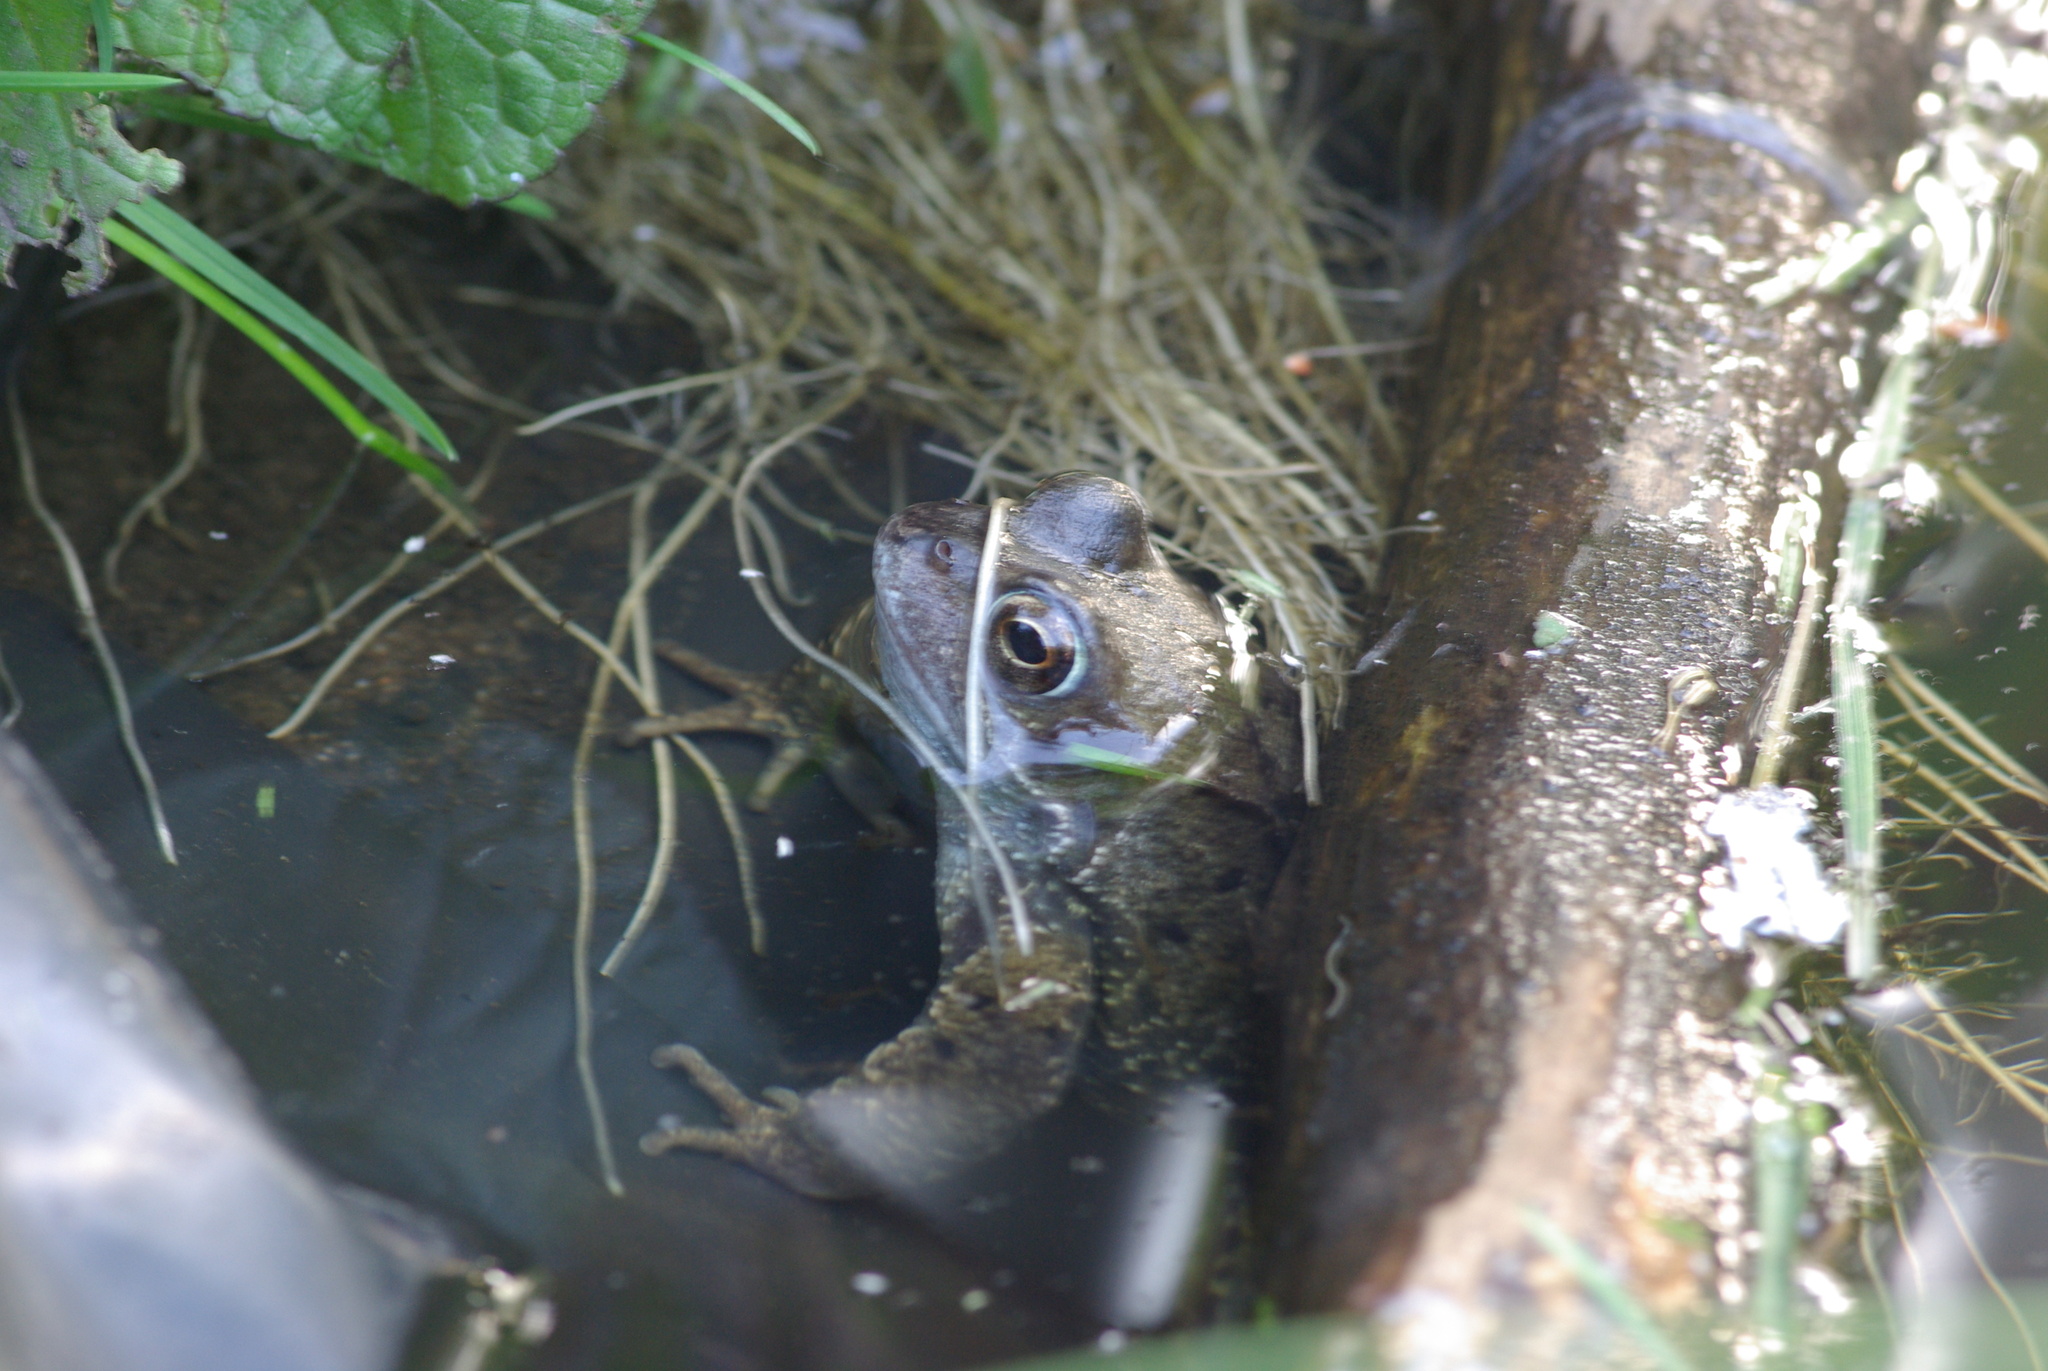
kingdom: Animalia
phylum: Chordata
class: Amphibia
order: Anura
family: Ranidae
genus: Rana
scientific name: Rana temporaria
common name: Common frog
